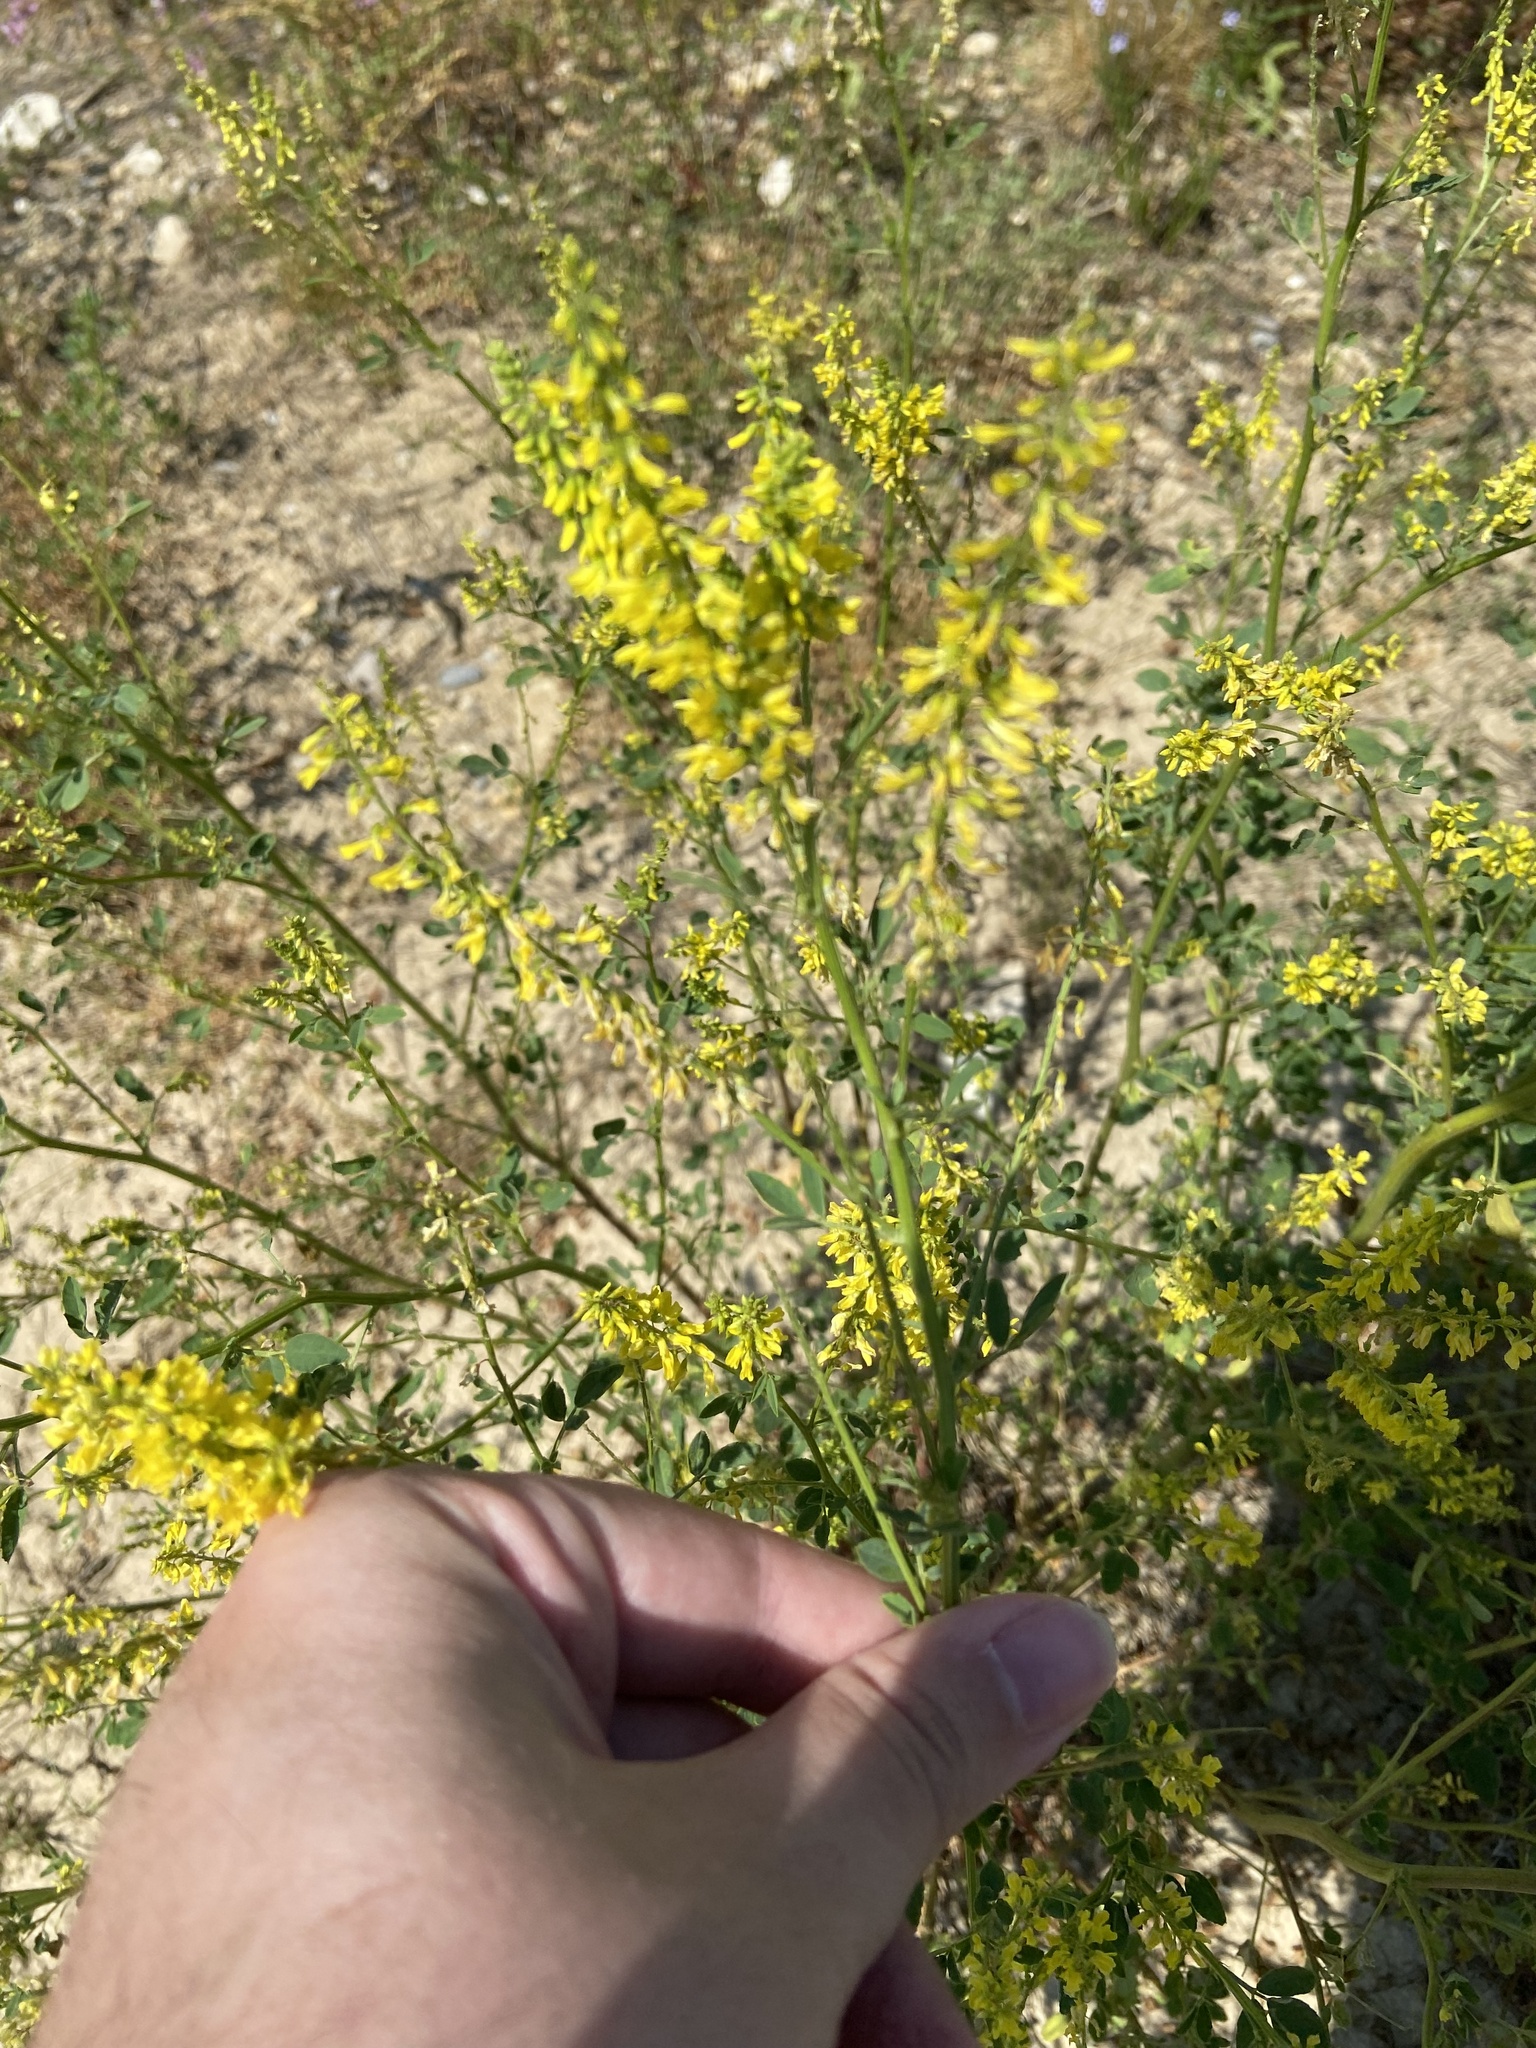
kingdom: Plantae
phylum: Tracheophyta
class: Magnoliopsida
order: Fabales
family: Fabaceae
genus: Melilotus
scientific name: Melilotus officinalis
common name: Sweetclover
